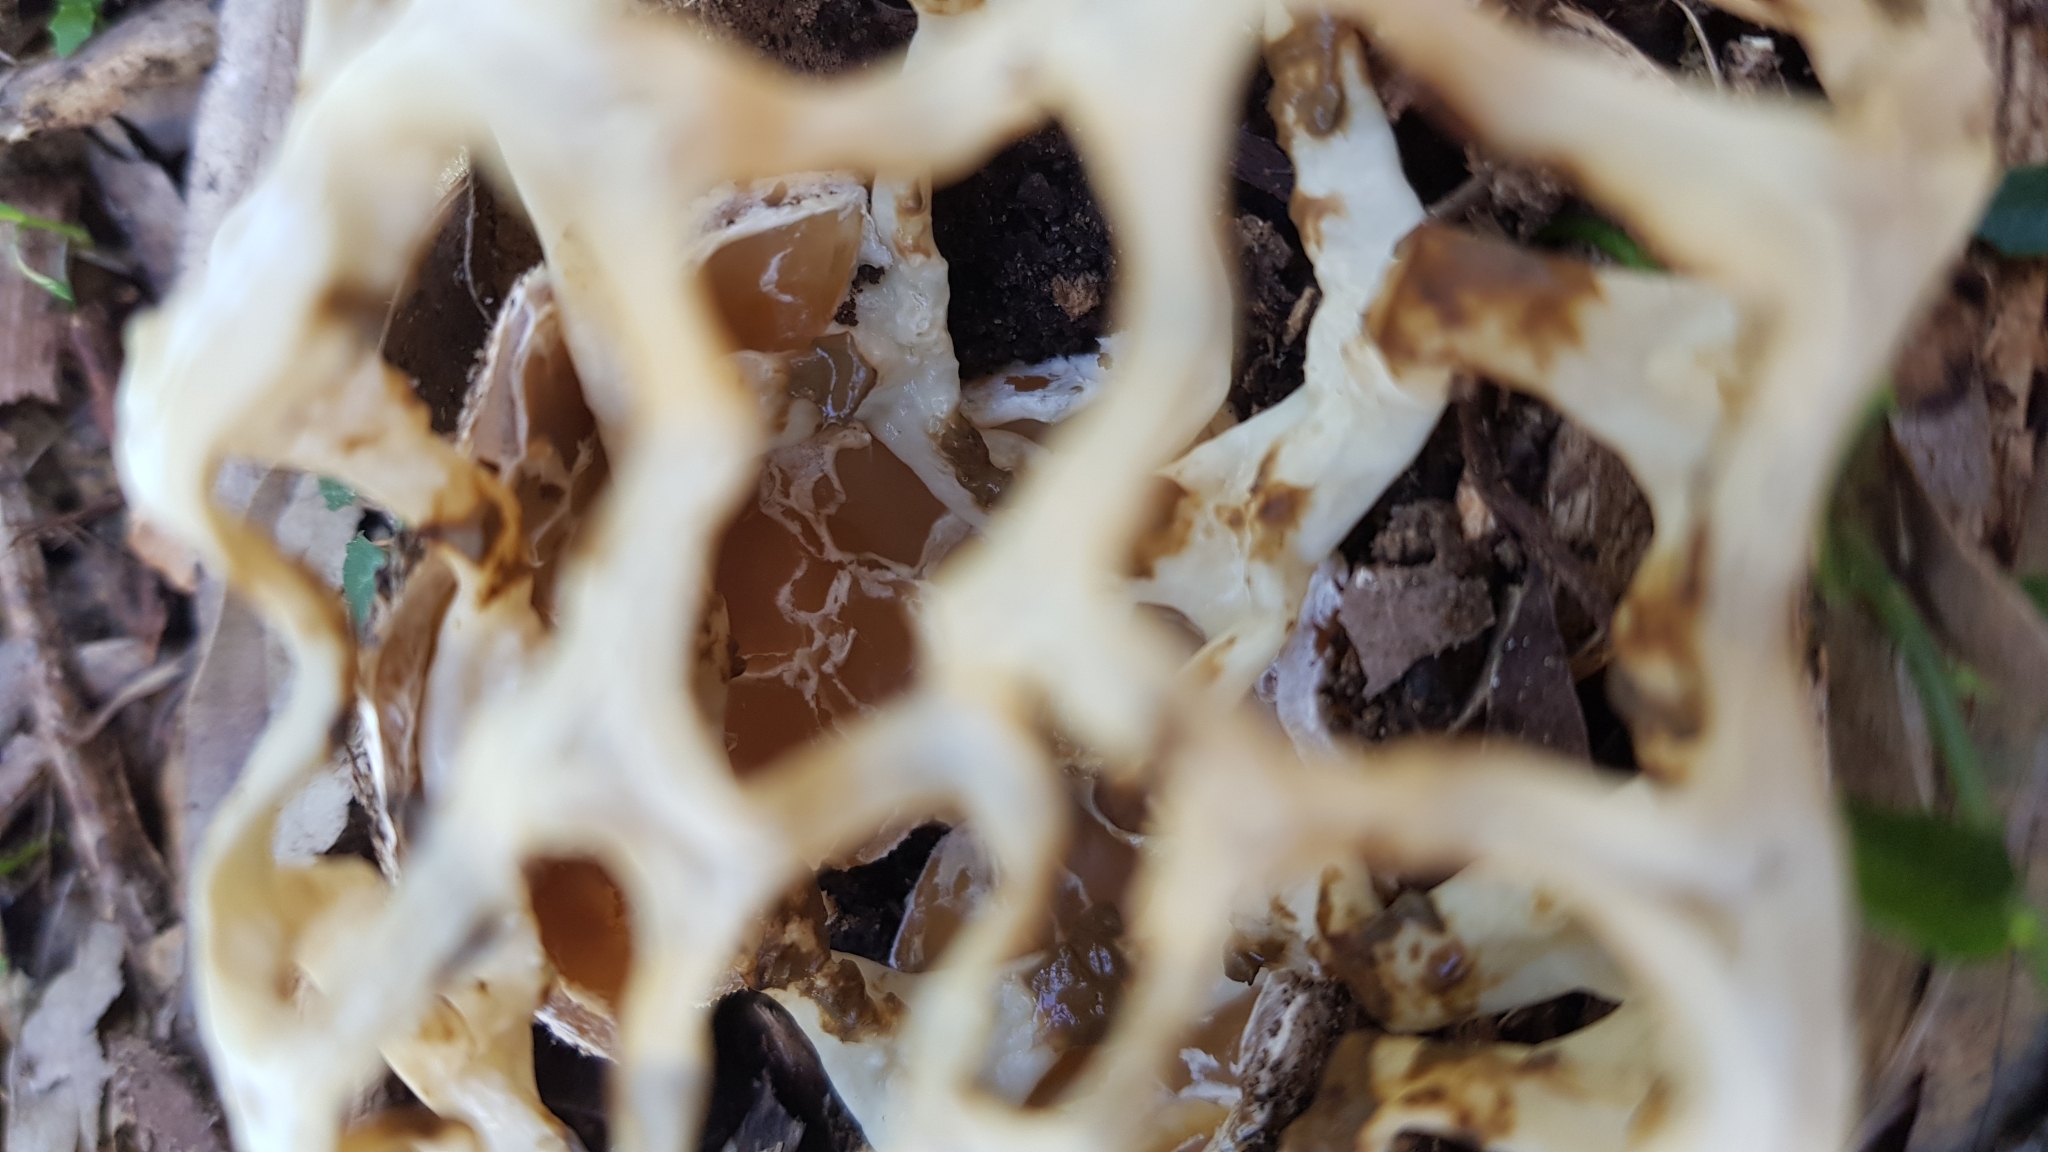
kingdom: Fungi
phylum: Basidiomycota
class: Agaricomycetes
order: Phallales
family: Phallaceae
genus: Ileodictyon
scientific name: Ileodictyon gracile
